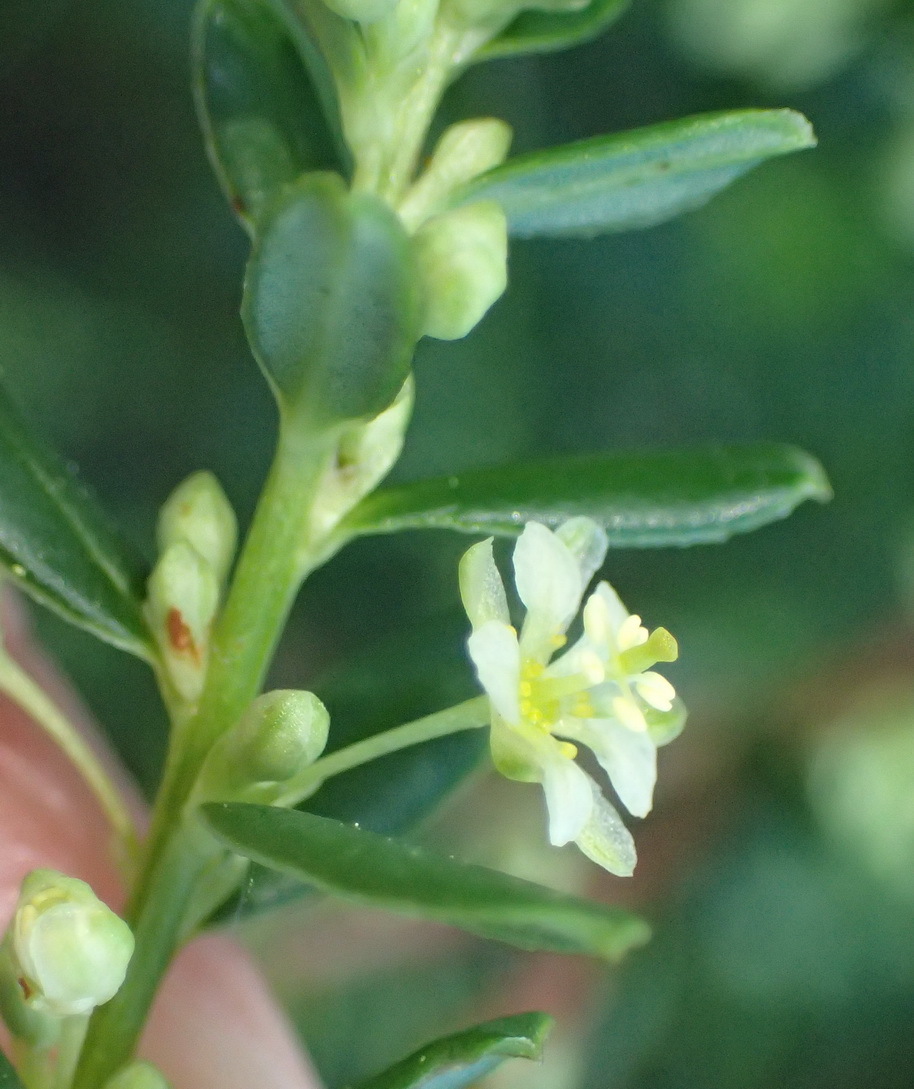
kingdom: Plantae
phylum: Tracheophyta
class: Magnoliopsida
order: Malpighiales
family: Peraceae
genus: Clutia
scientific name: Clutia daphnoides
